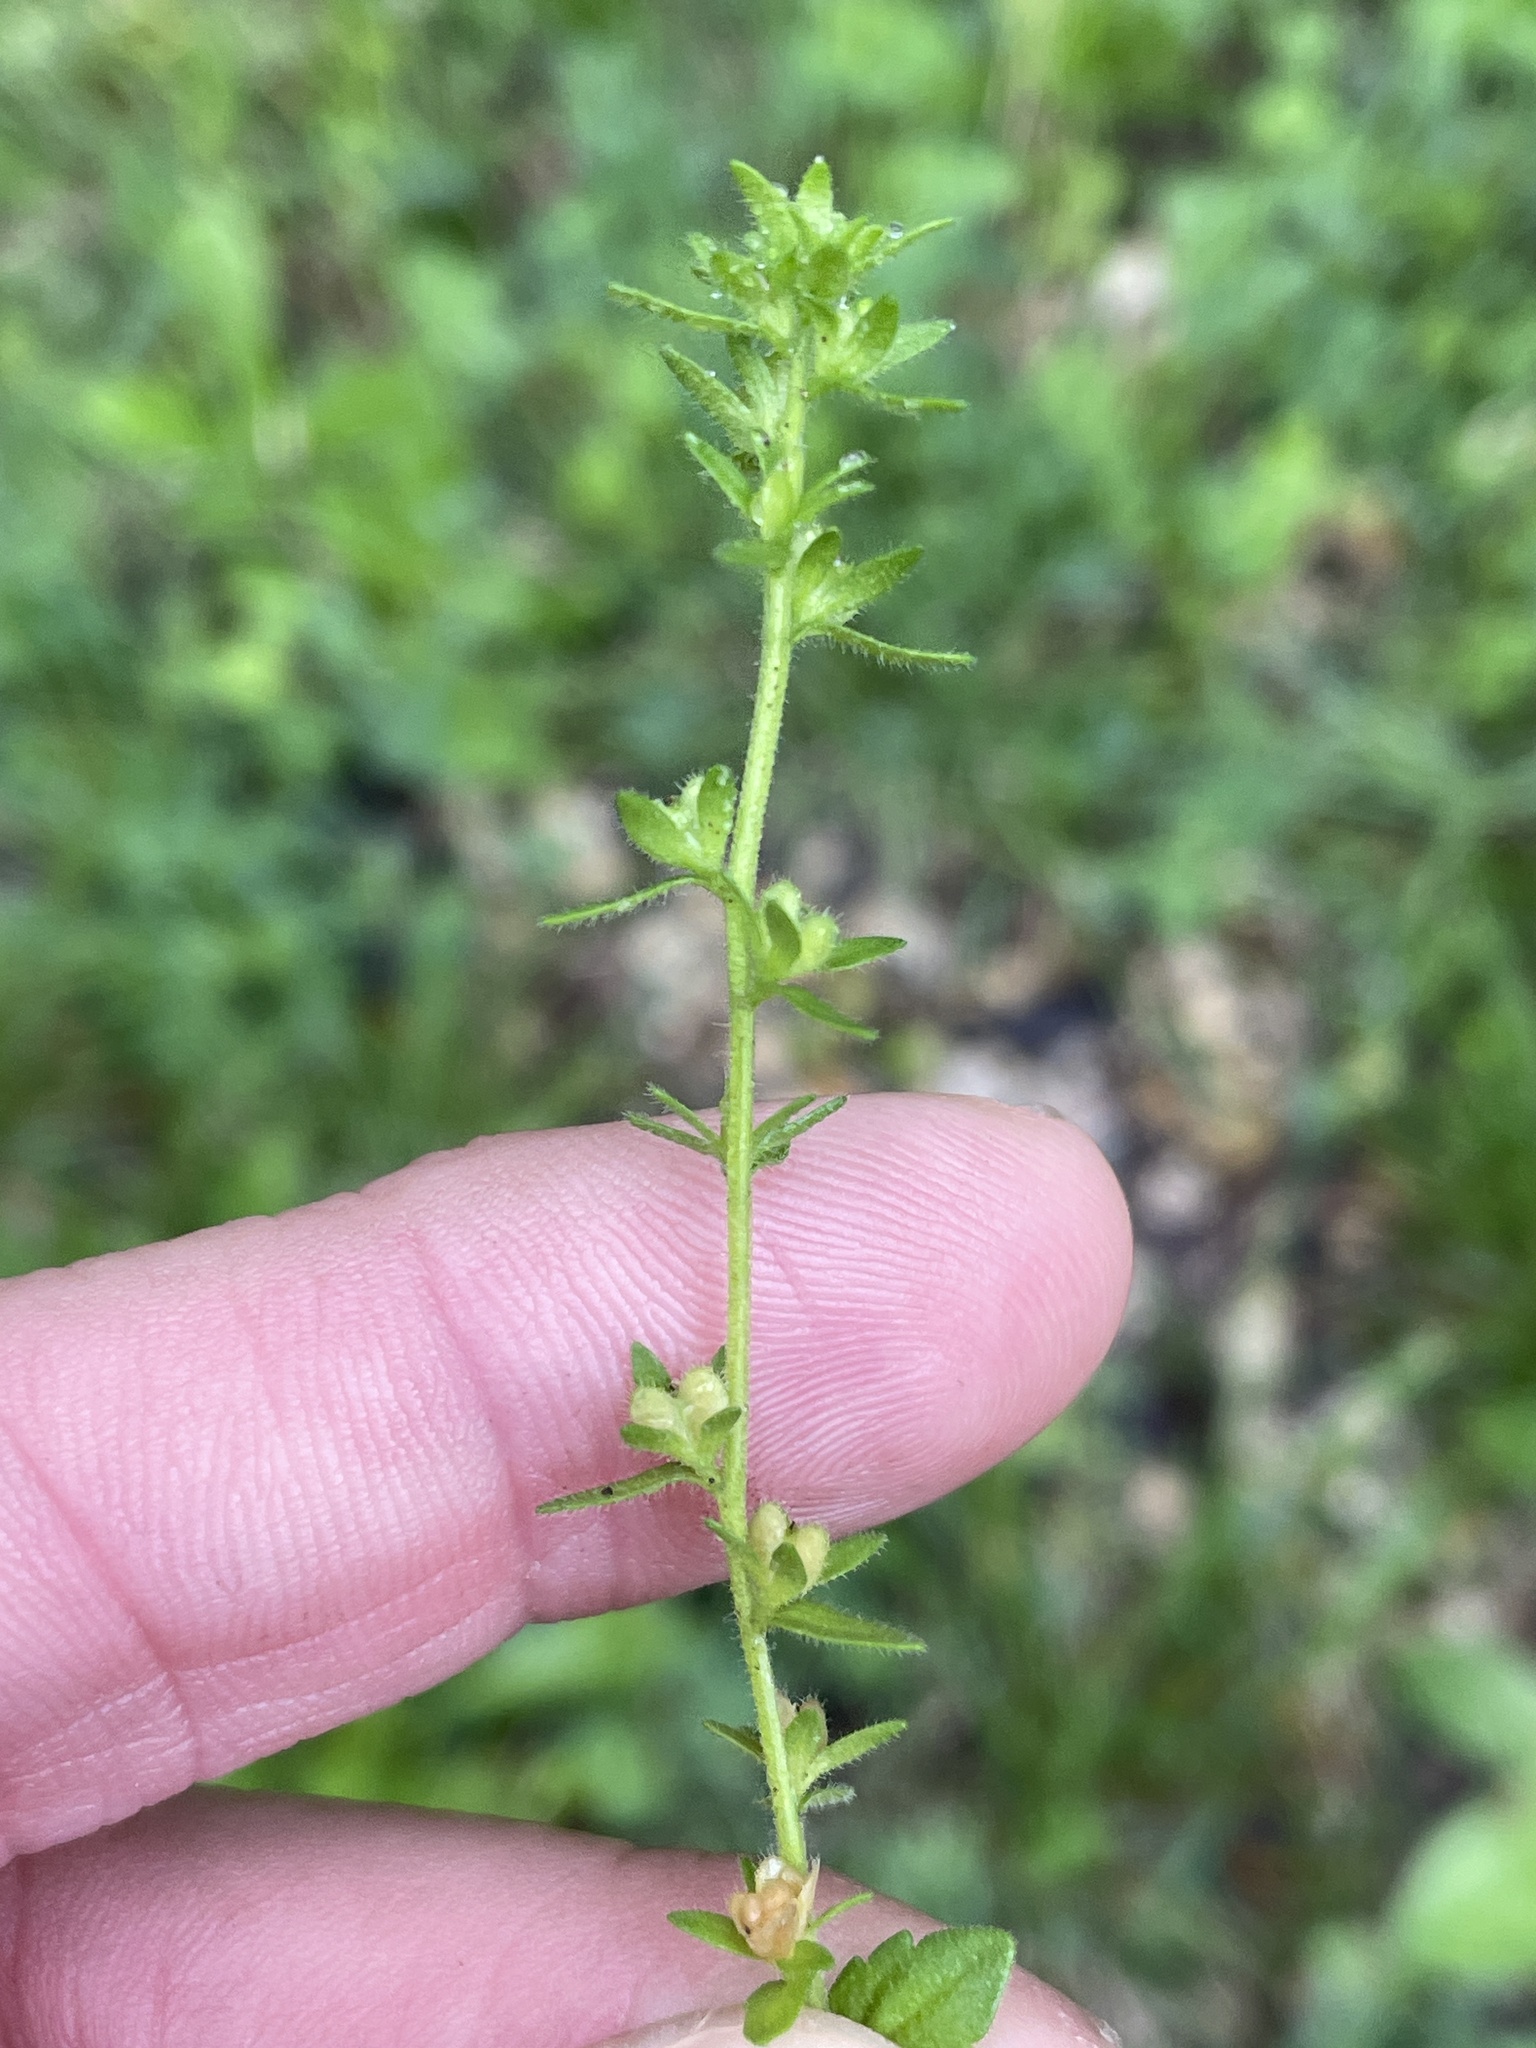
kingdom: Plantae
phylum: Tracheophyta
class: Magnoliopsida
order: Lamiales
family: Plantaginaceae
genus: Veronica
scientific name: Veronica arvensis
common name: Corn speedwell
